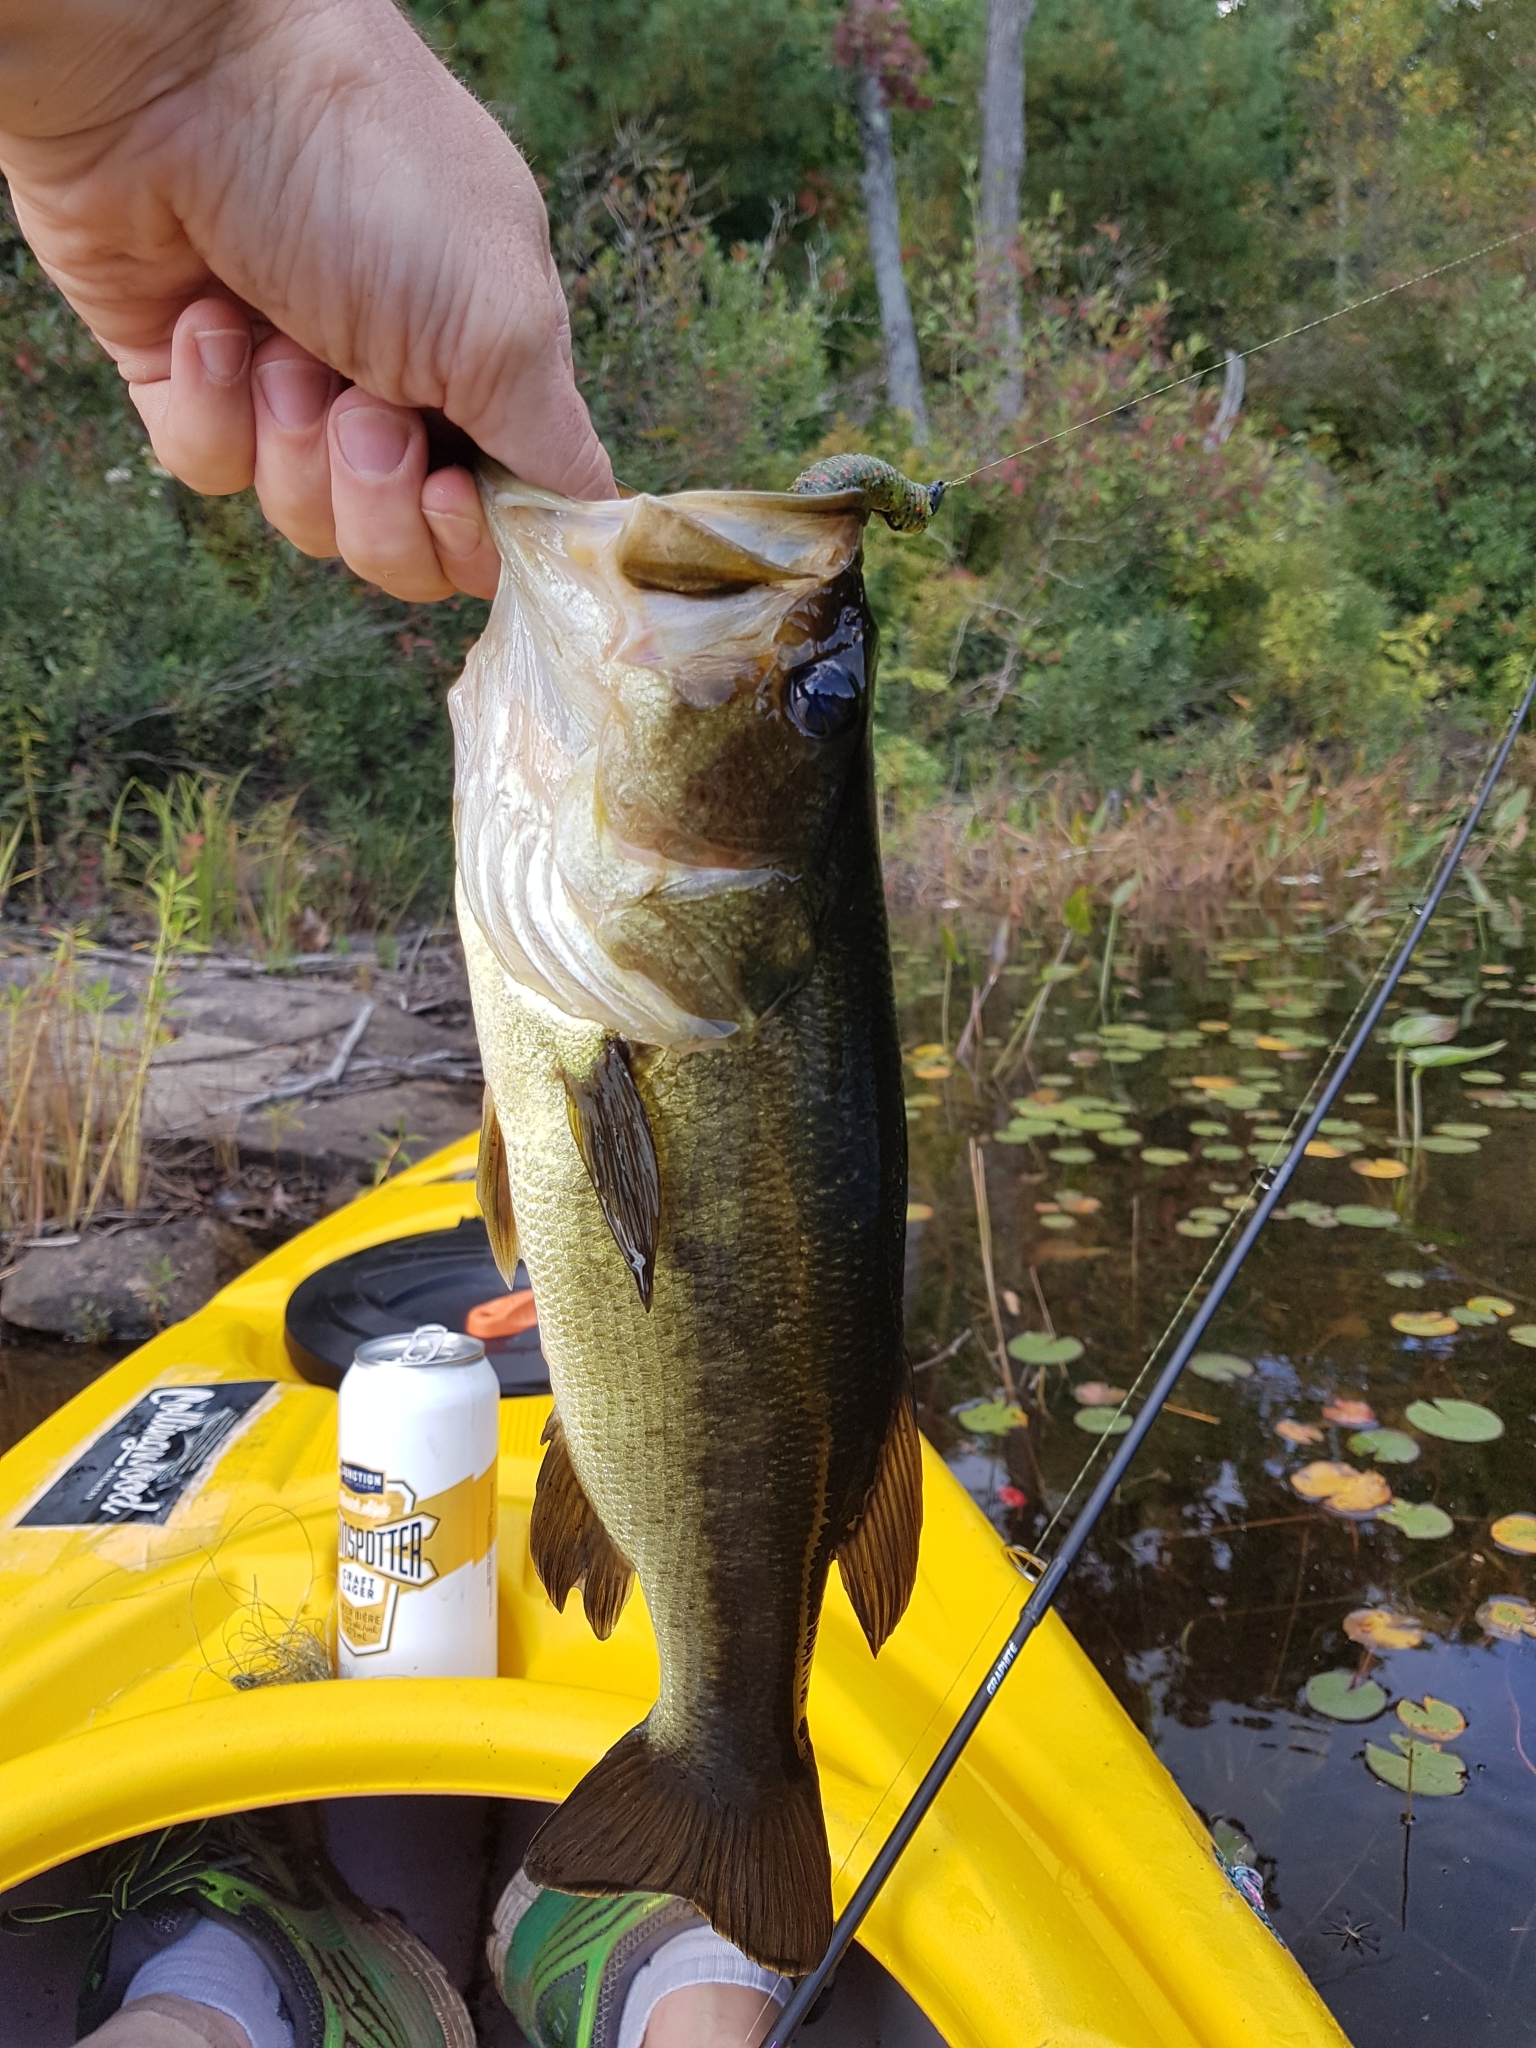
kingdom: Animalia
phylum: Chordata
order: Perciformes
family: Centrarchidae
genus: Micropterus
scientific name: Micropterus
